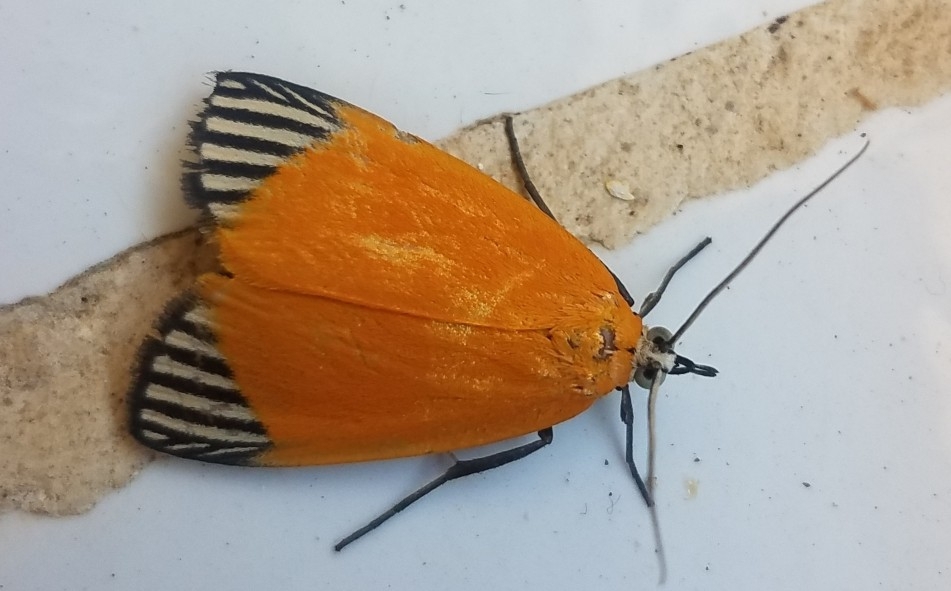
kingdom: Animalia
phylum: Arthropoda
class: Insecta
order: Lepidoptera
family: Pyralidae
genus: Mapeta
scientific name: Mapeta xanthomelas
